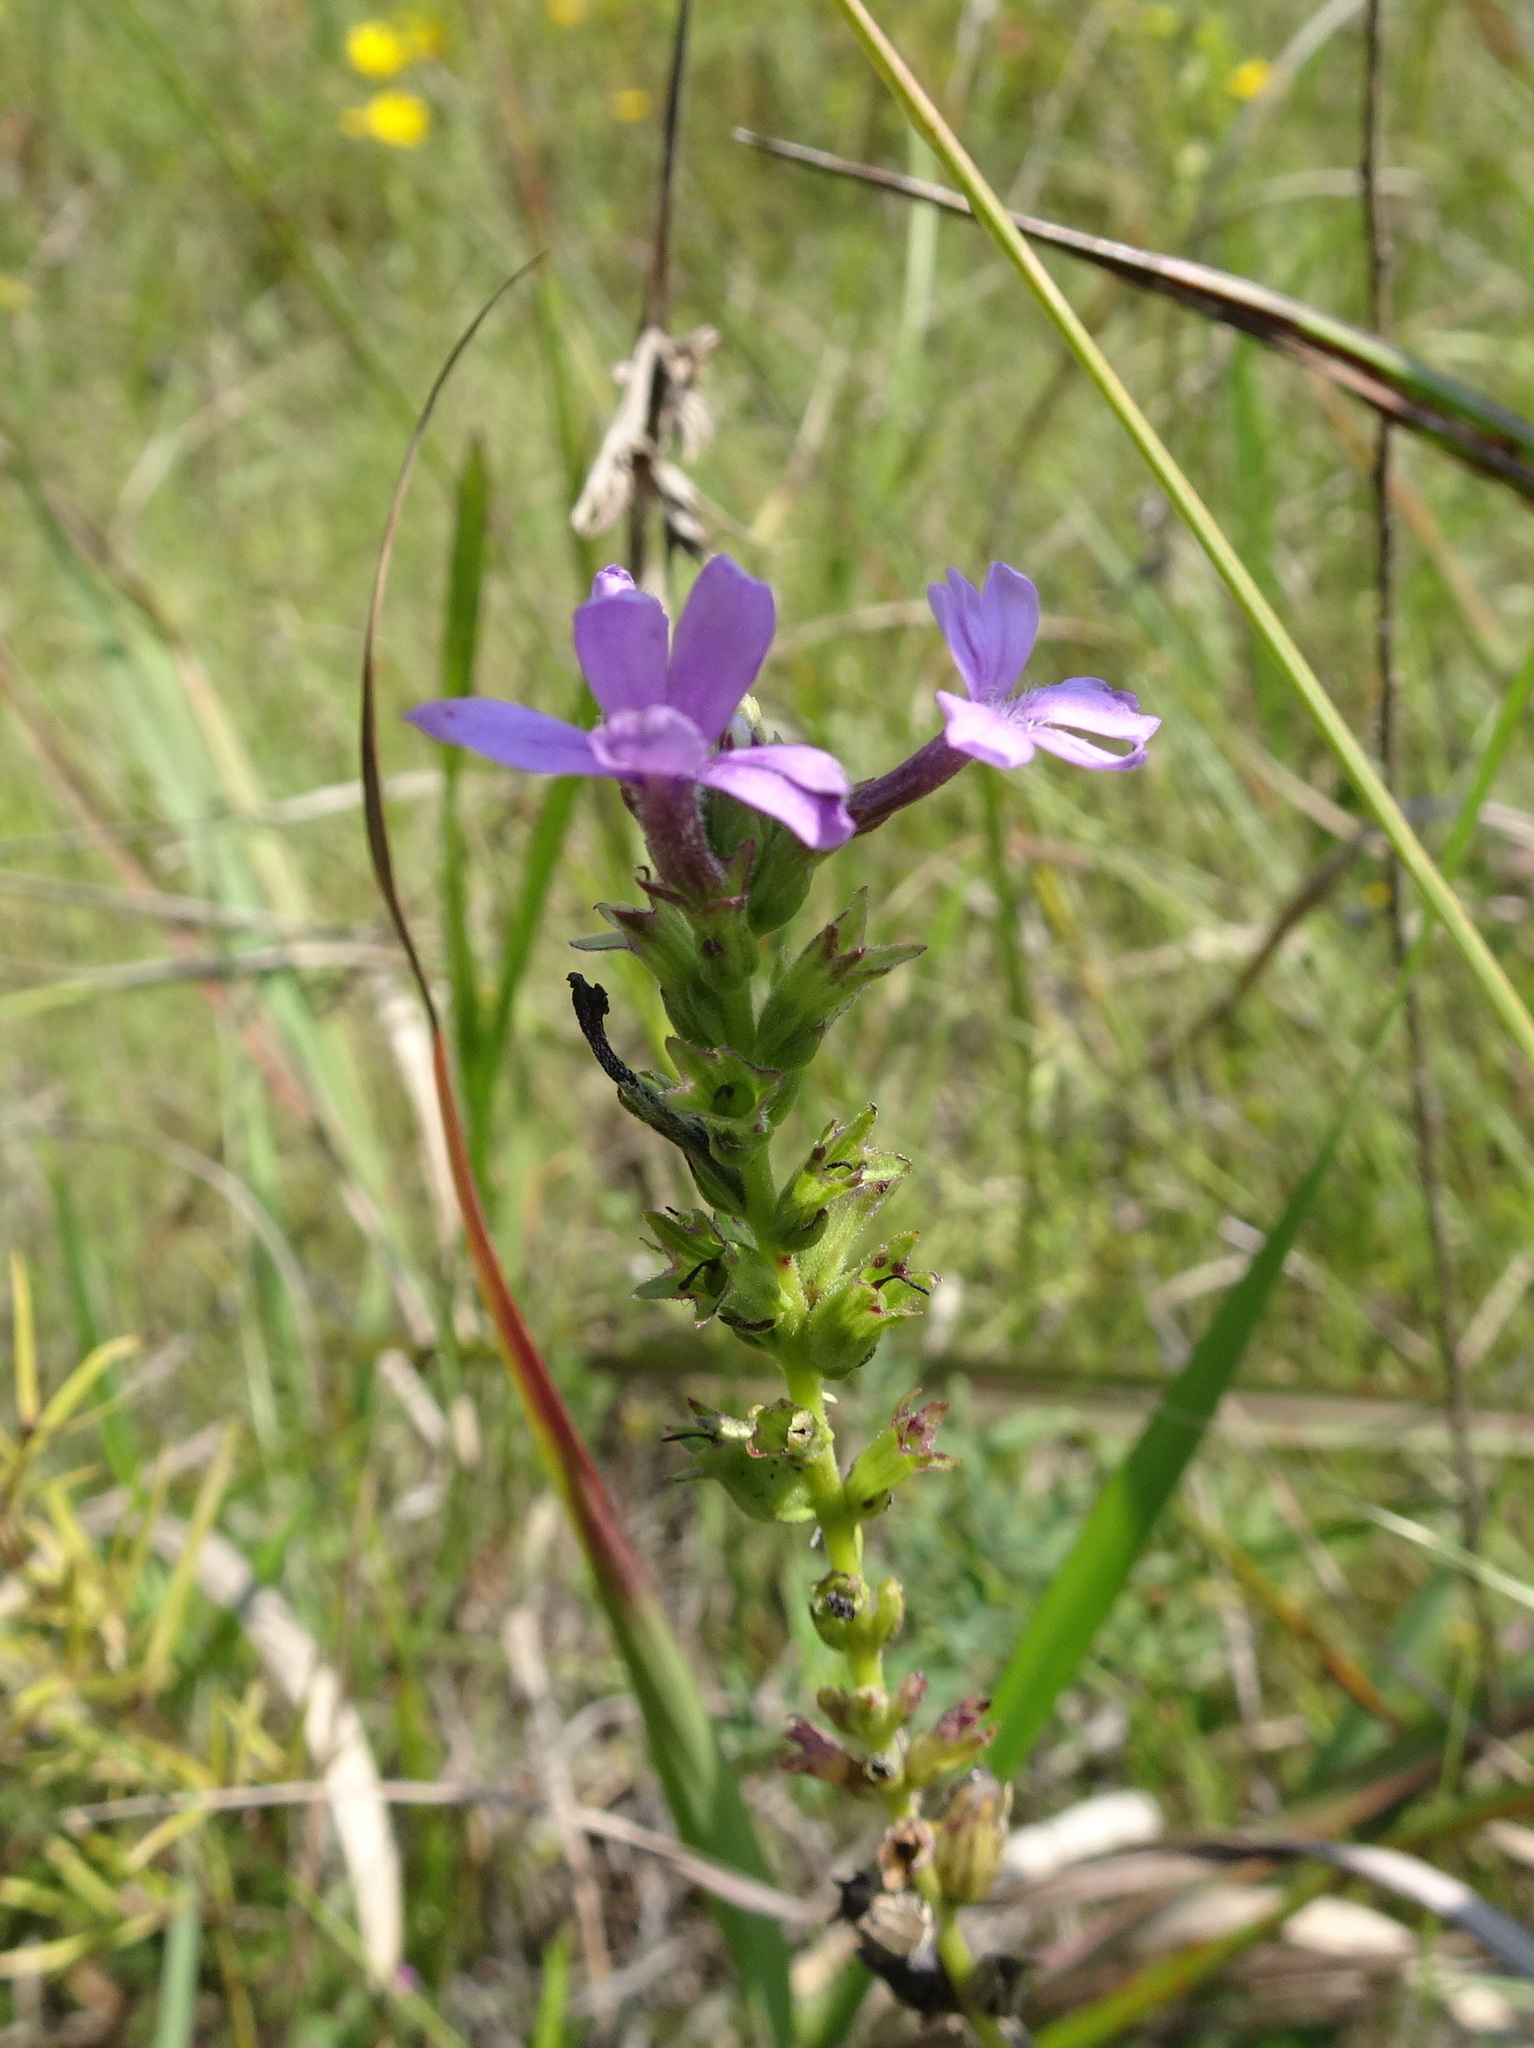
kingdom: Plantae
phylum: Tracheophyta
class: Magnoliopsida
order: Lamiales
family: Orobanchaceae
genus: Buchnera
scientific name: Buchnera americana
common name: American bluehearts
